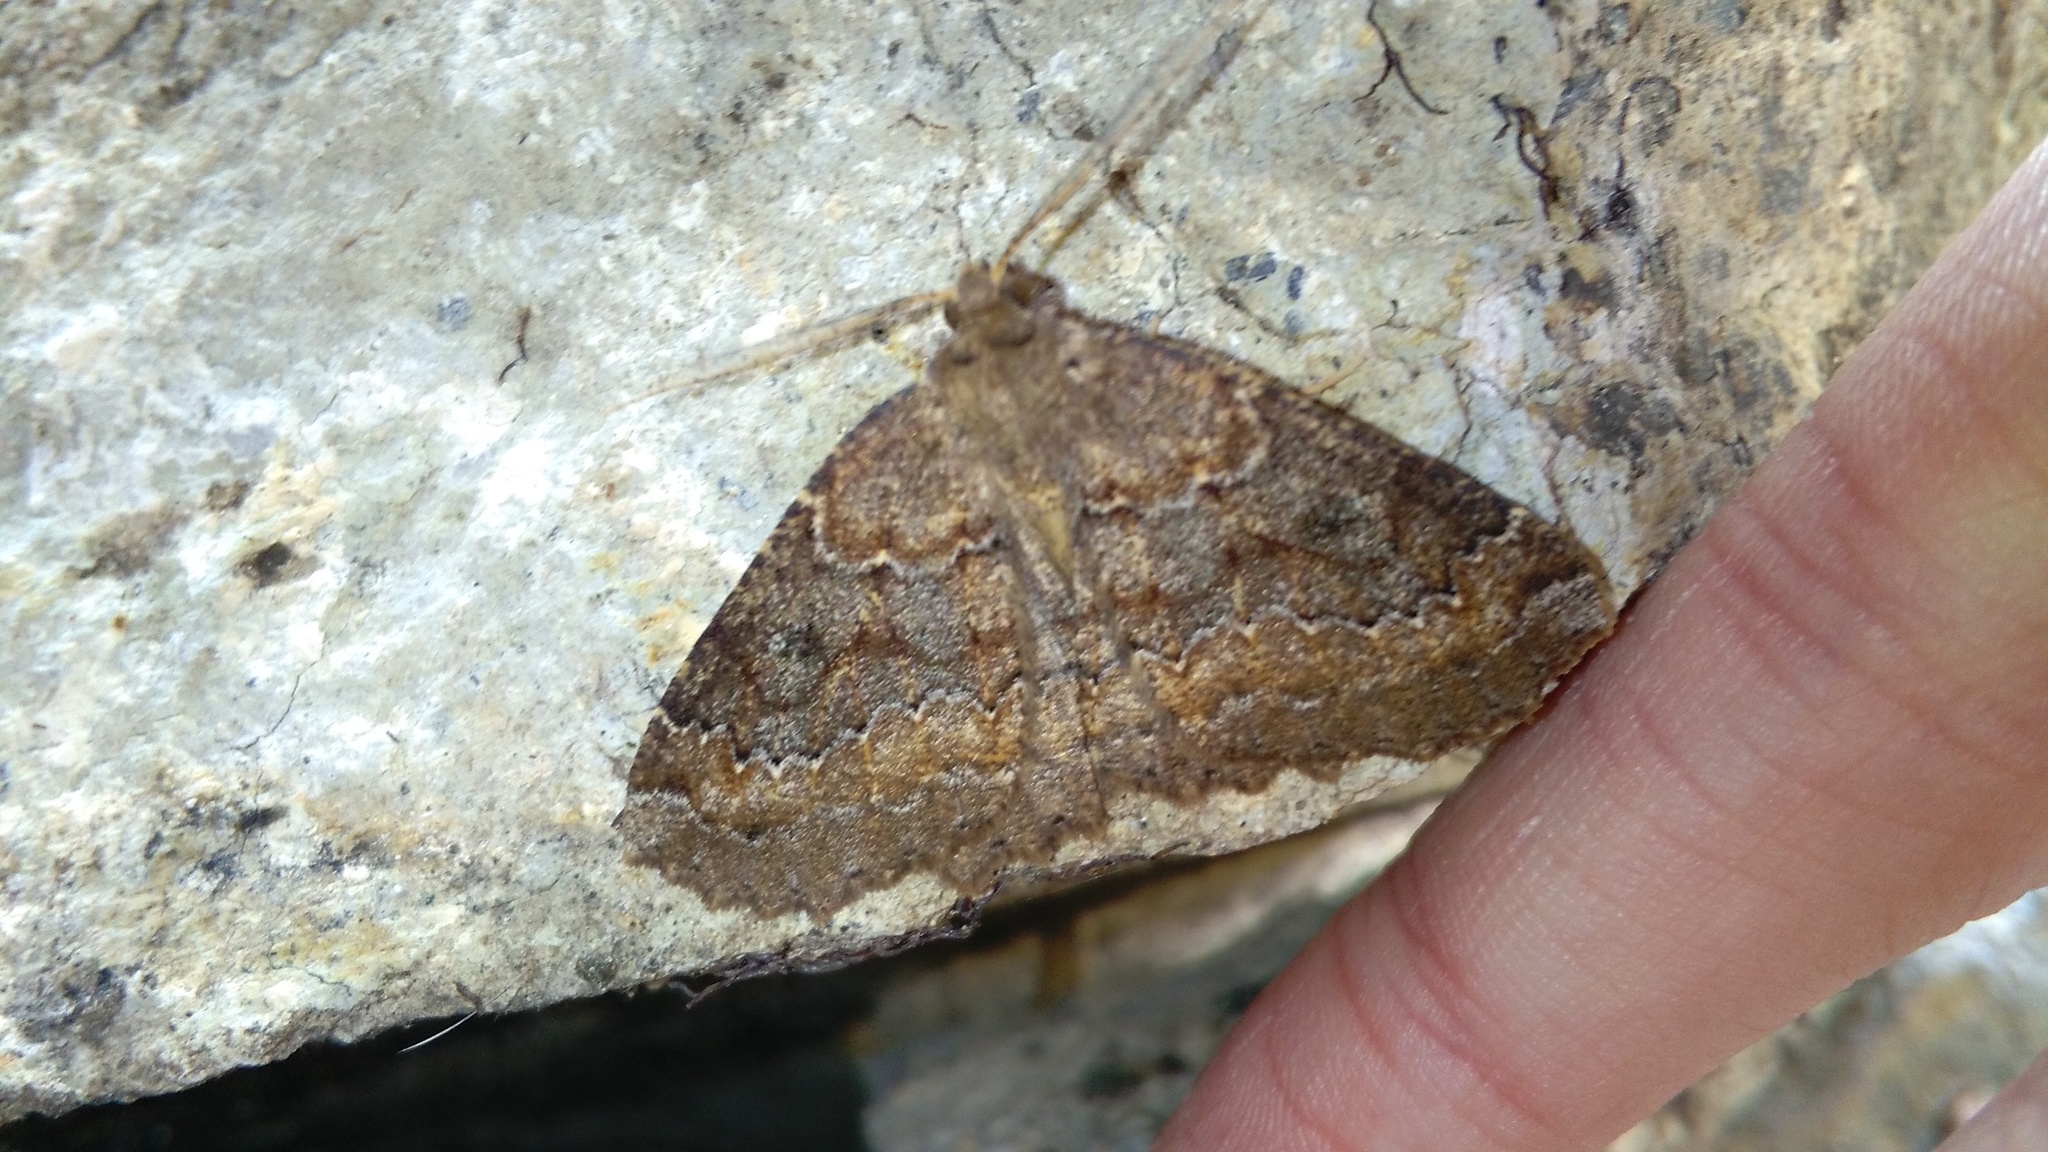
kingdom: Animalia
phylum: Arthropoda
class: Insecta
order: Lepidoptera
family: Geometridae
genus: Cleora
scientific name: Cleora scriptaria
